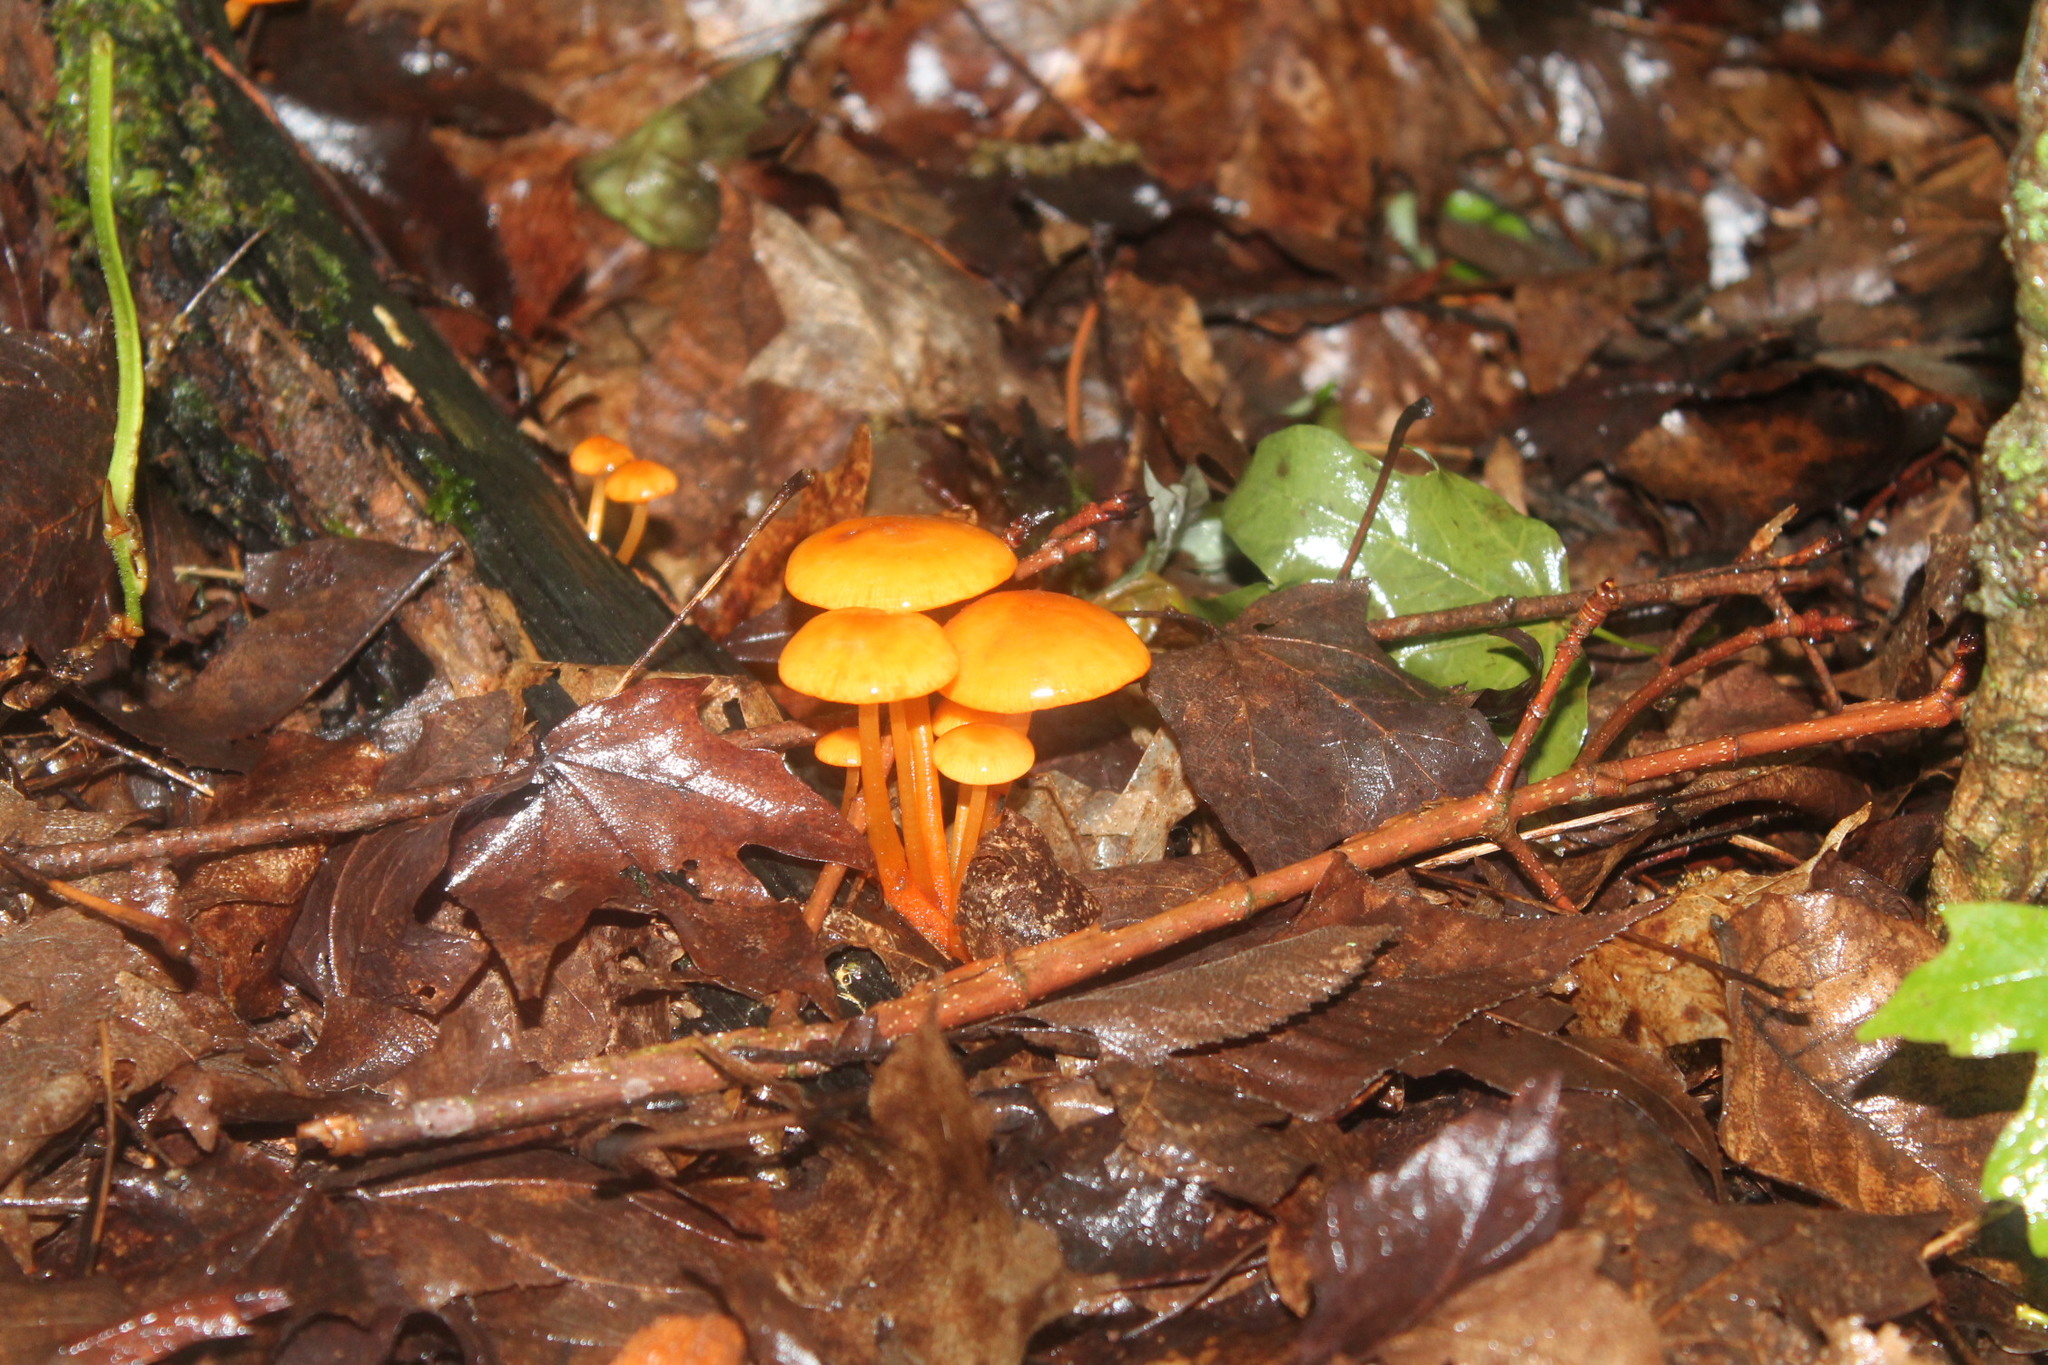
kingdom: Fungi
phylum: Basidiomycota
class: Agaricomycetes
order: Agaricales
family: Mycenaceae
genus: Mycena
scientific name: Mycena leaiana
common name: Orange mycena
